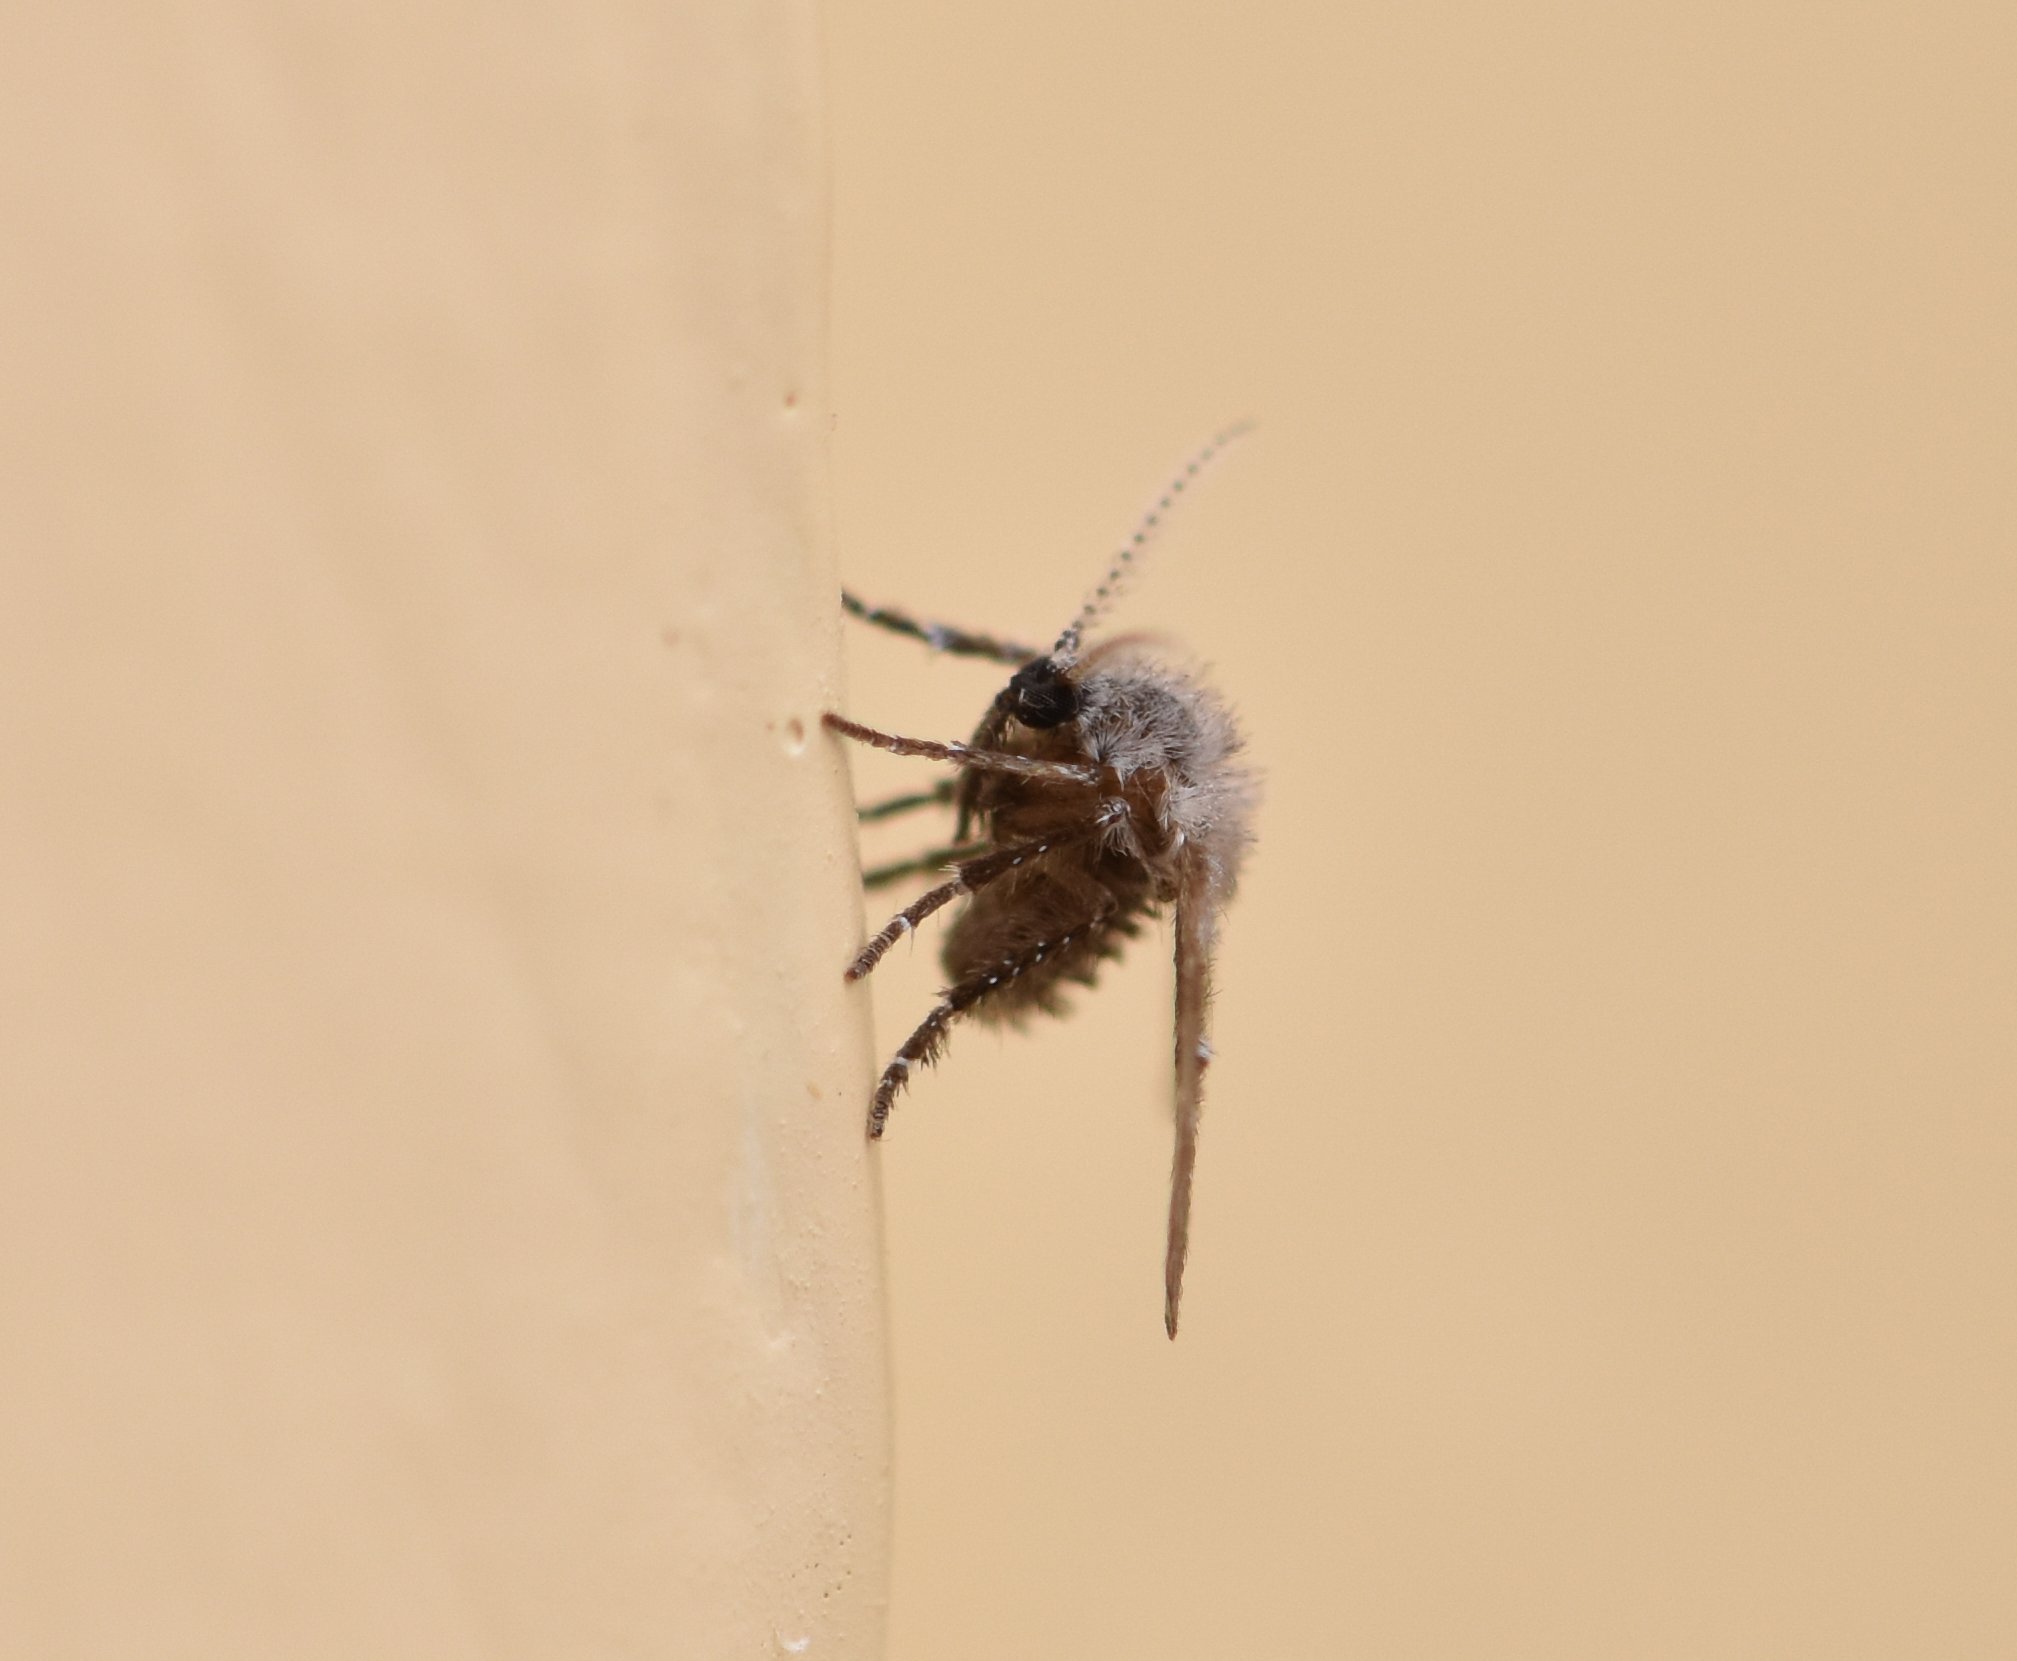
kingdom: Animalia
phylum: Arthropoda
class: Insecta
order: Diptera
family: Psychodidae
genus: Clogmia
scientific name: Clogmia albipunctatus
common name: White-spotted moth fly
